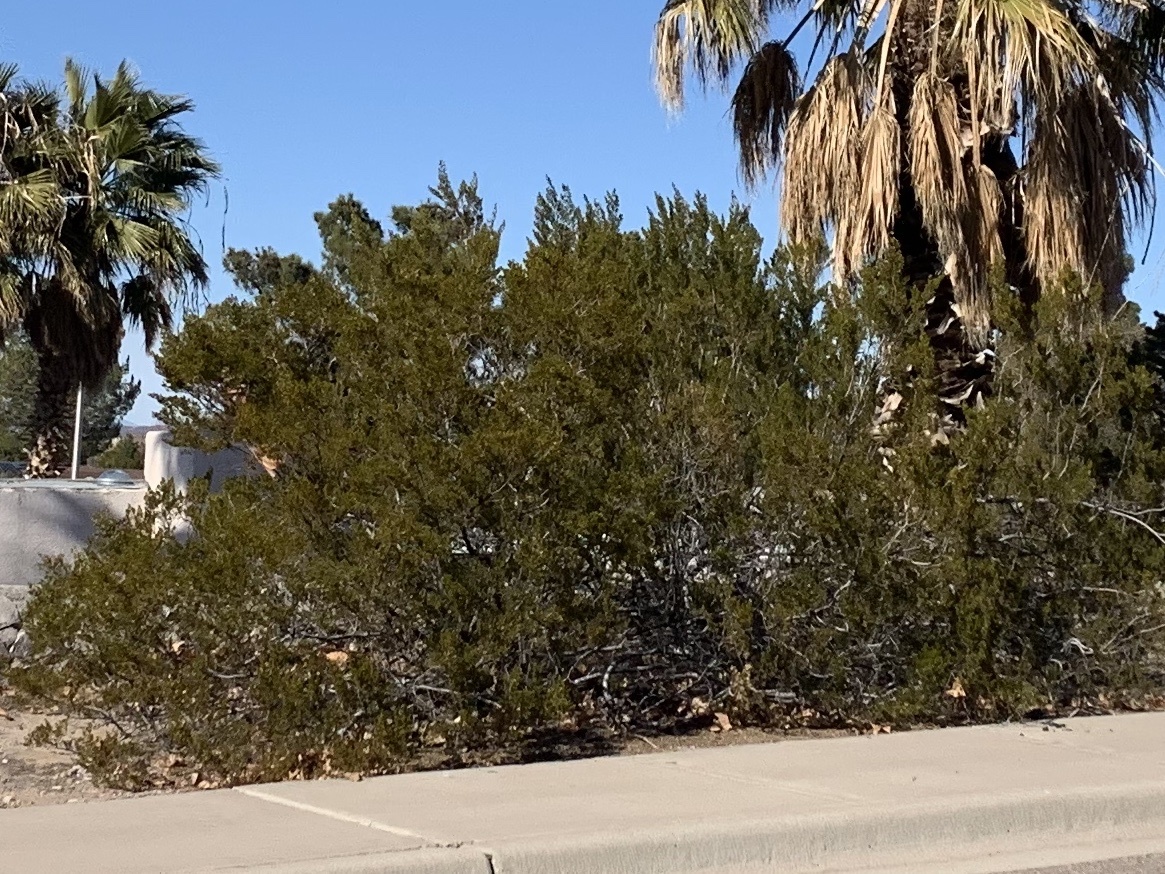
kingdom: Plantae
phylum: Tracheophyta
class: Magnoliopsida
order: Zygophyllales
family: Zygophyllaceae
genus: Larrea
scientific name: Larrea tridentata
